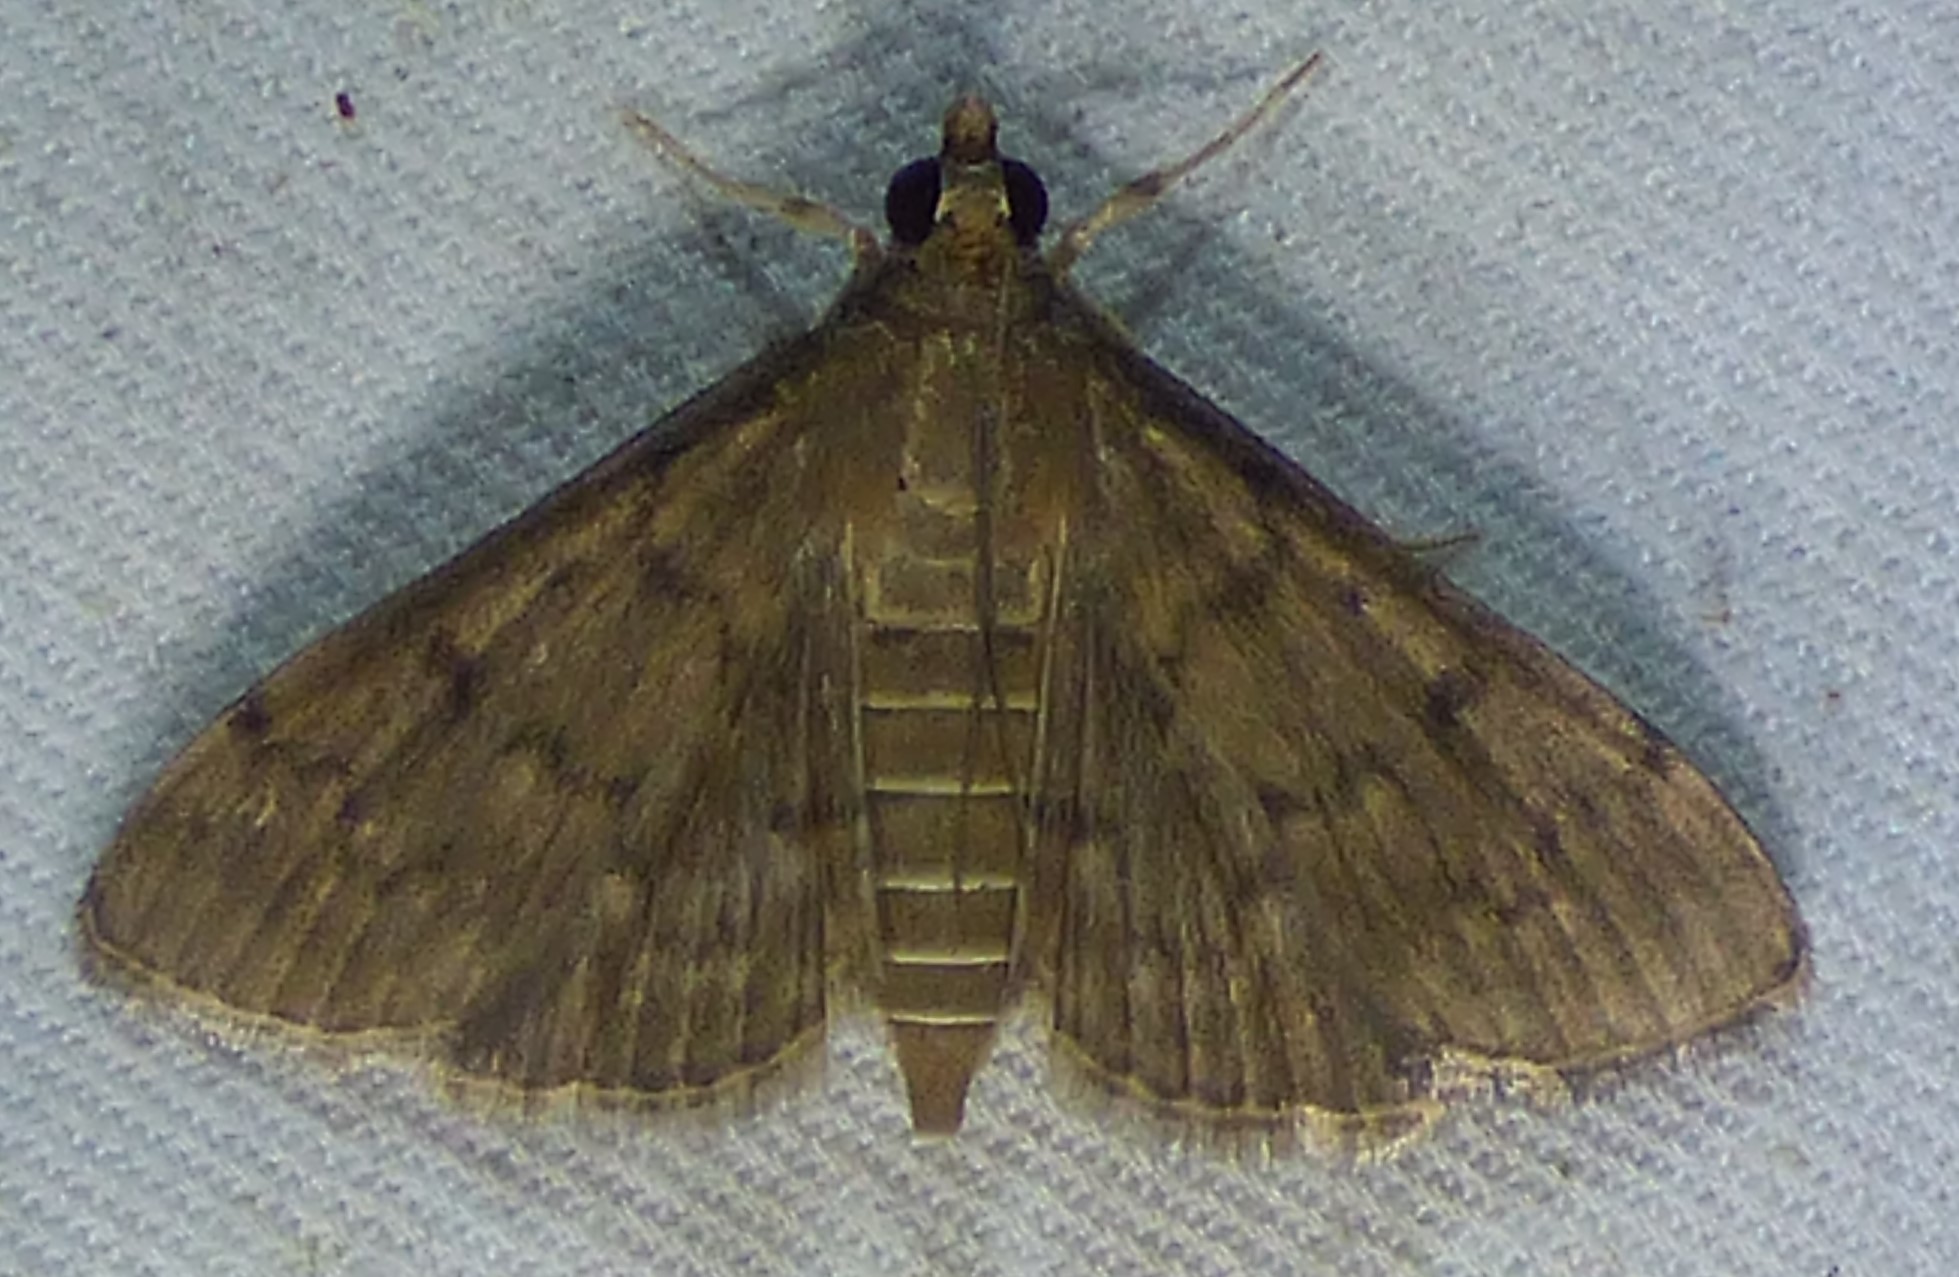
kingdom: Animalia
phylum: Arthropoda
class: Insecta
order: Lepidoptera
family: Crambidae
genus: Herpetogramma
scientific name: Herpetogramma phaeopteralis
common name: Dusky herpetogramma moth
